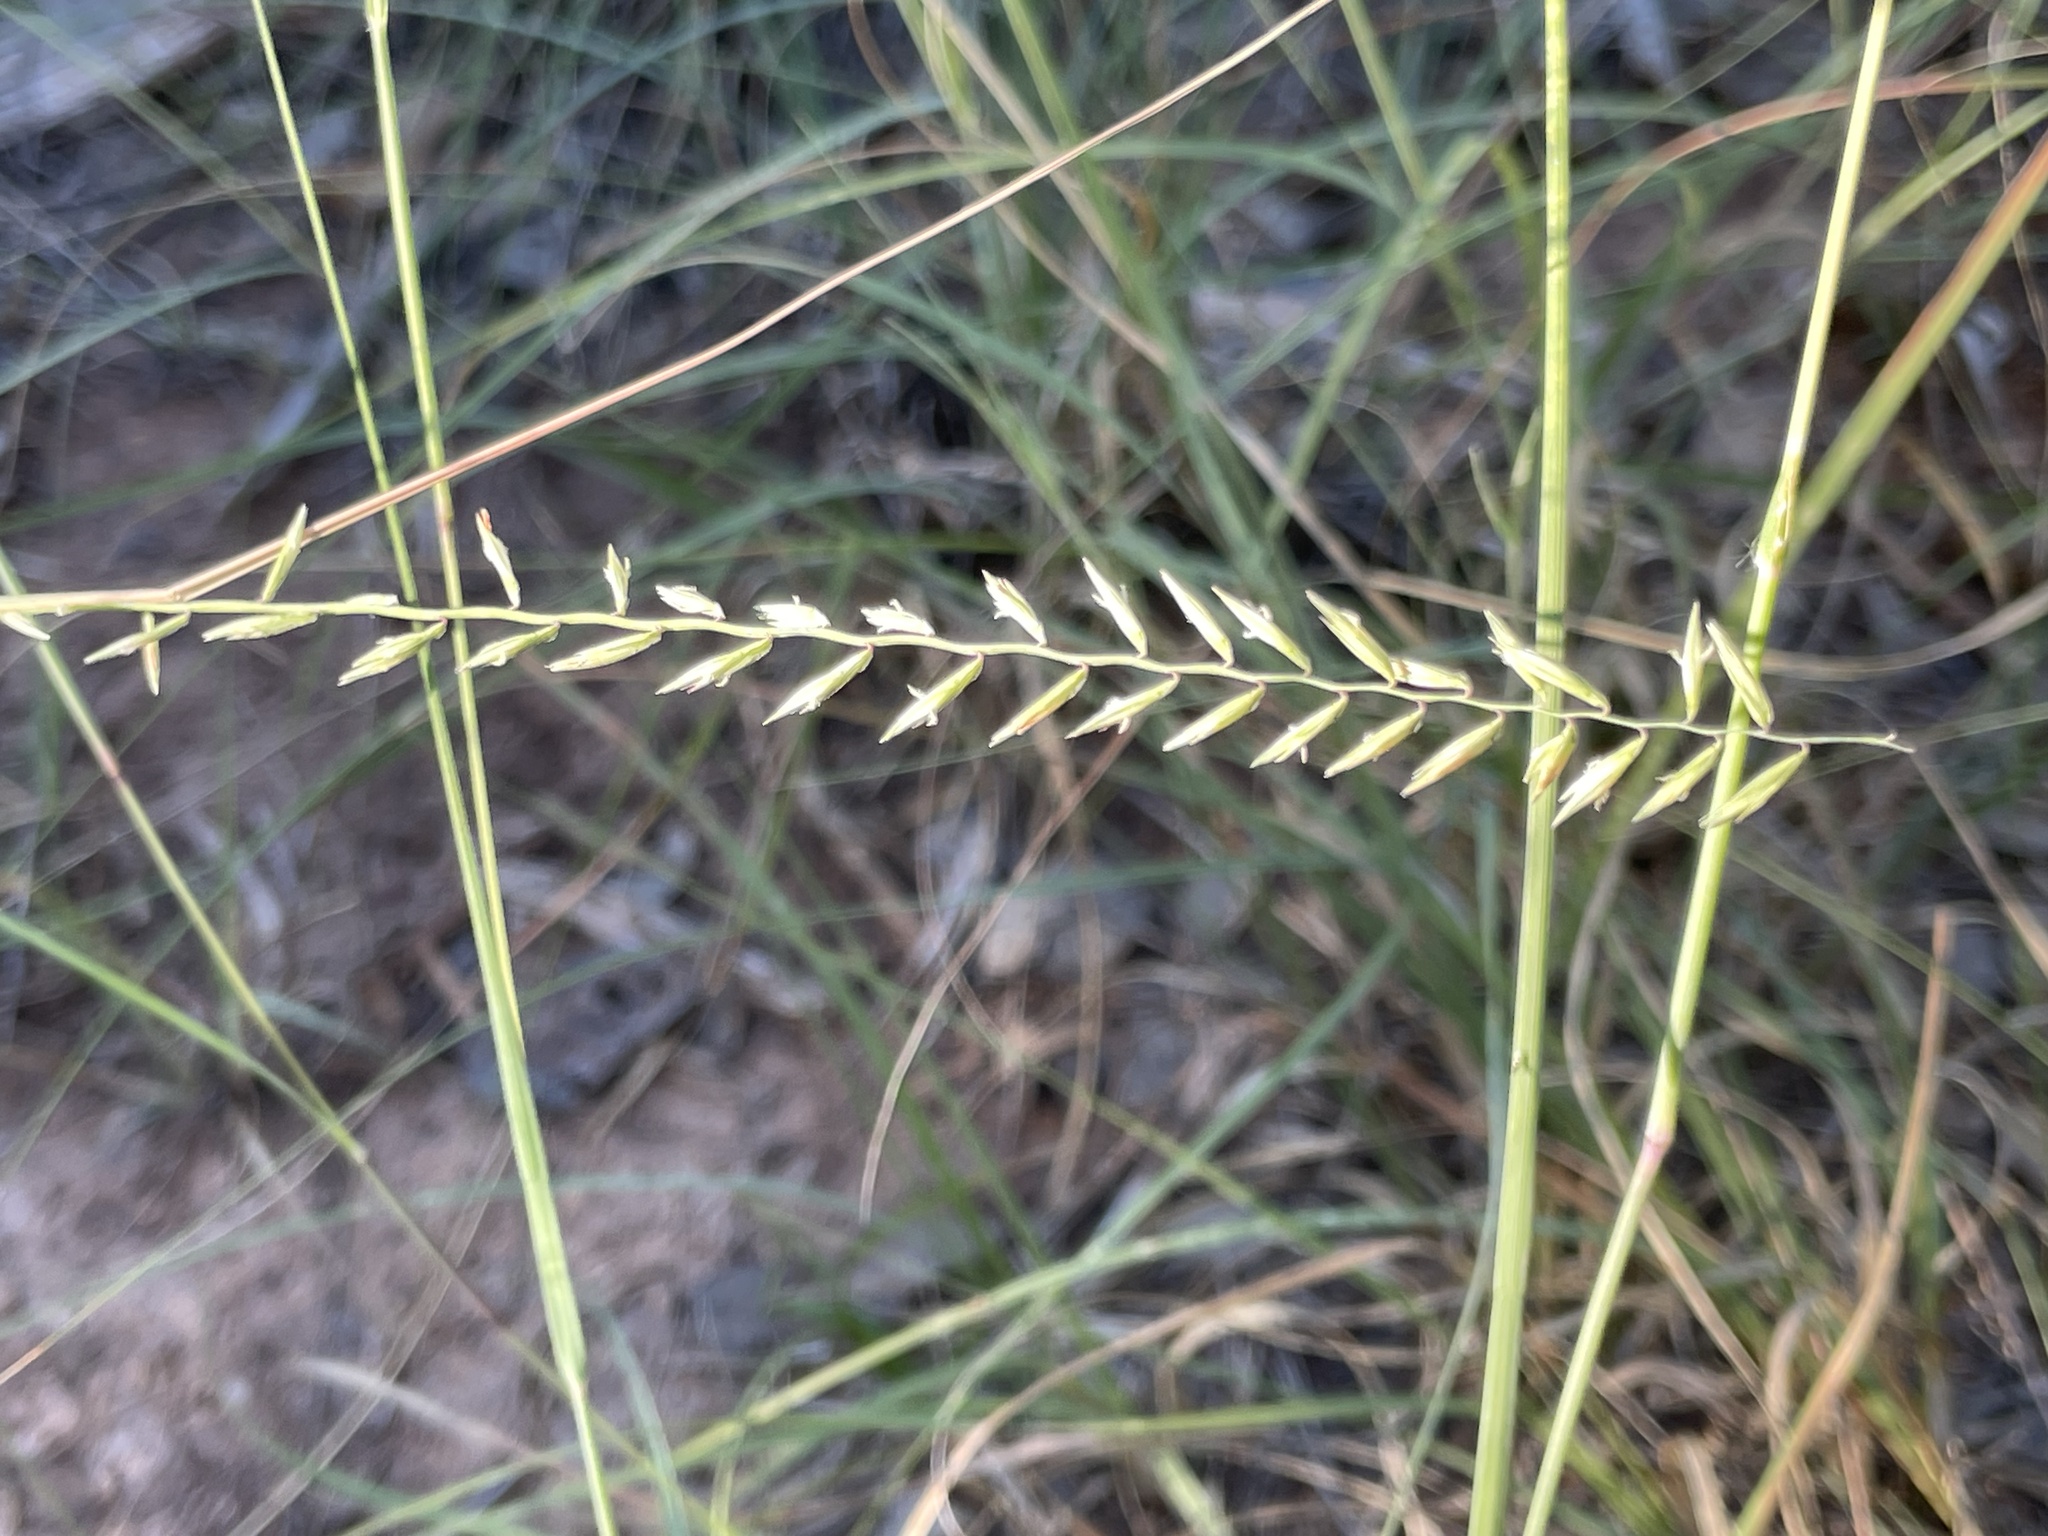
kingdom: Plantae
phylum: Tracheophyta
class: Liliopsida
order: Poales
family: Poaceae
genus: Bouteloua
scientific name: Bouteloua curtipendula
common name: Side-oats grama
